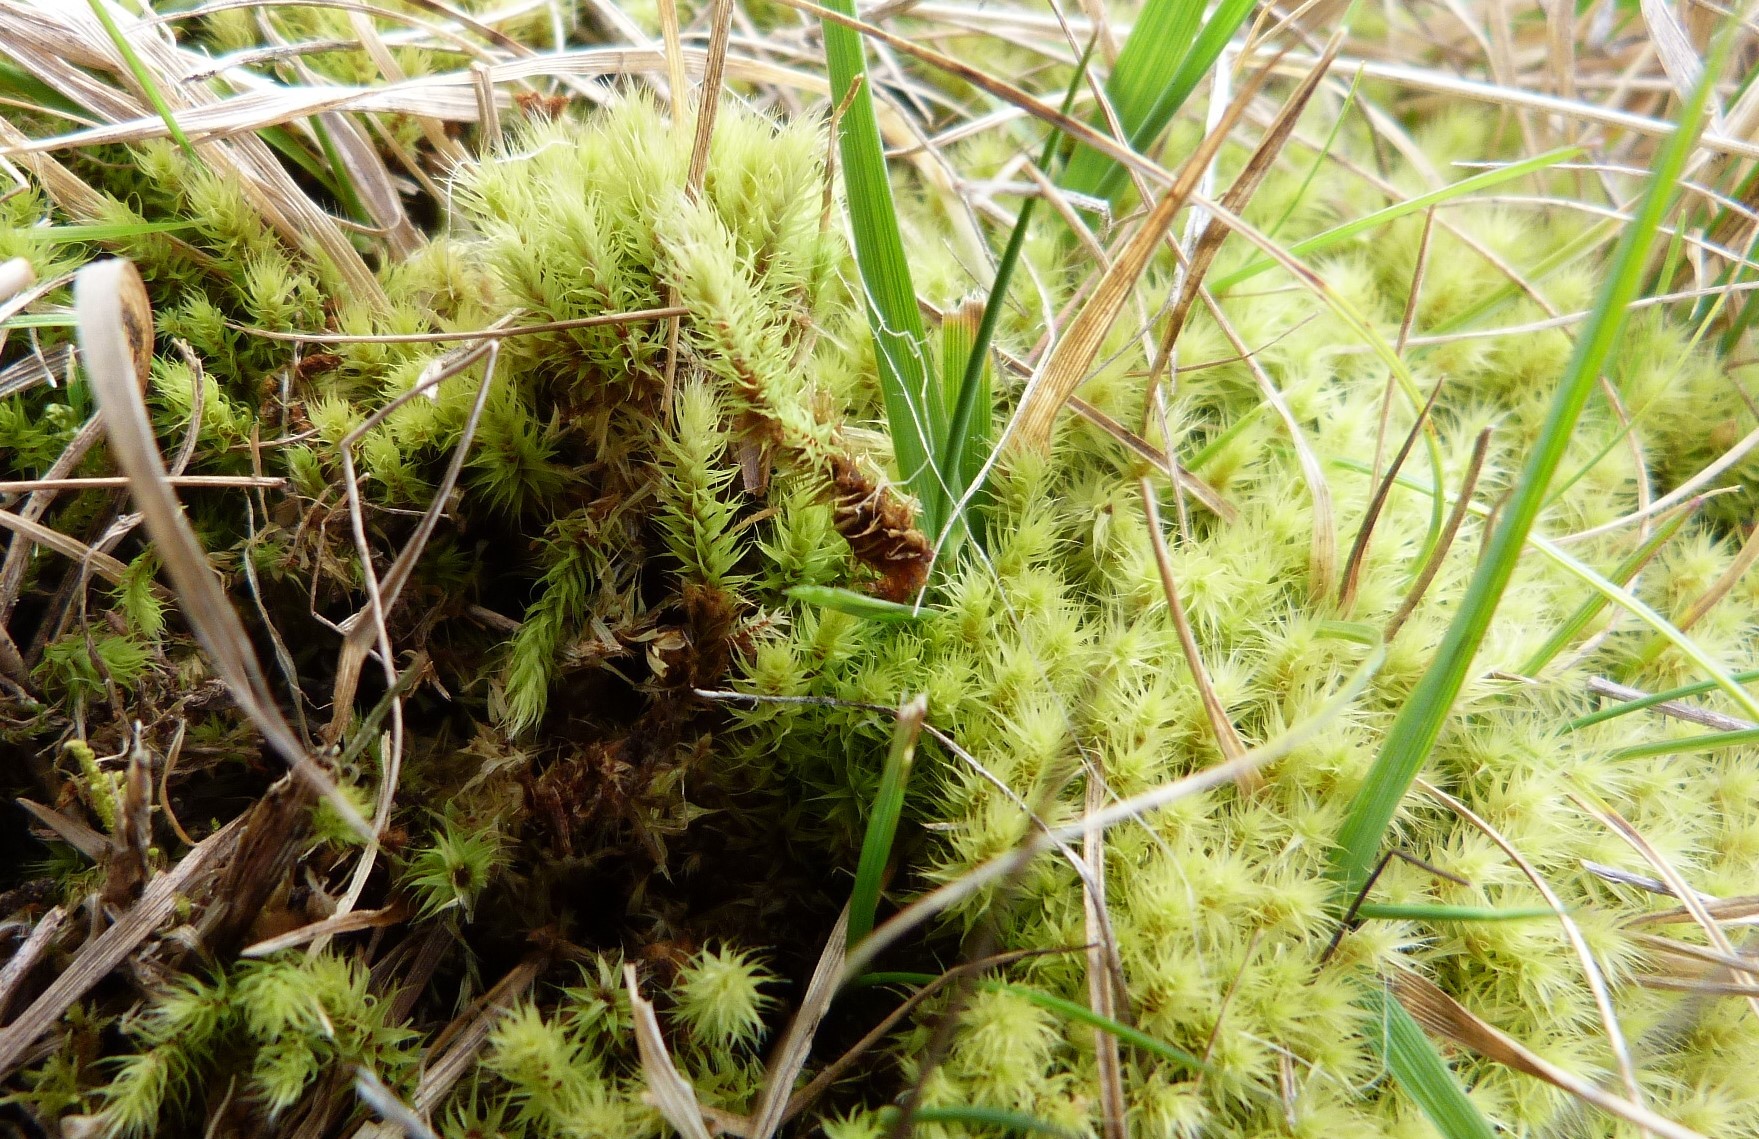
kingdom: Plantae
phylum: Bryophyta
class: Bryopsida
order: Bartramiales
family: Bartramiaceae
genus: Breutelia
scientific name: Breutelia pendula
